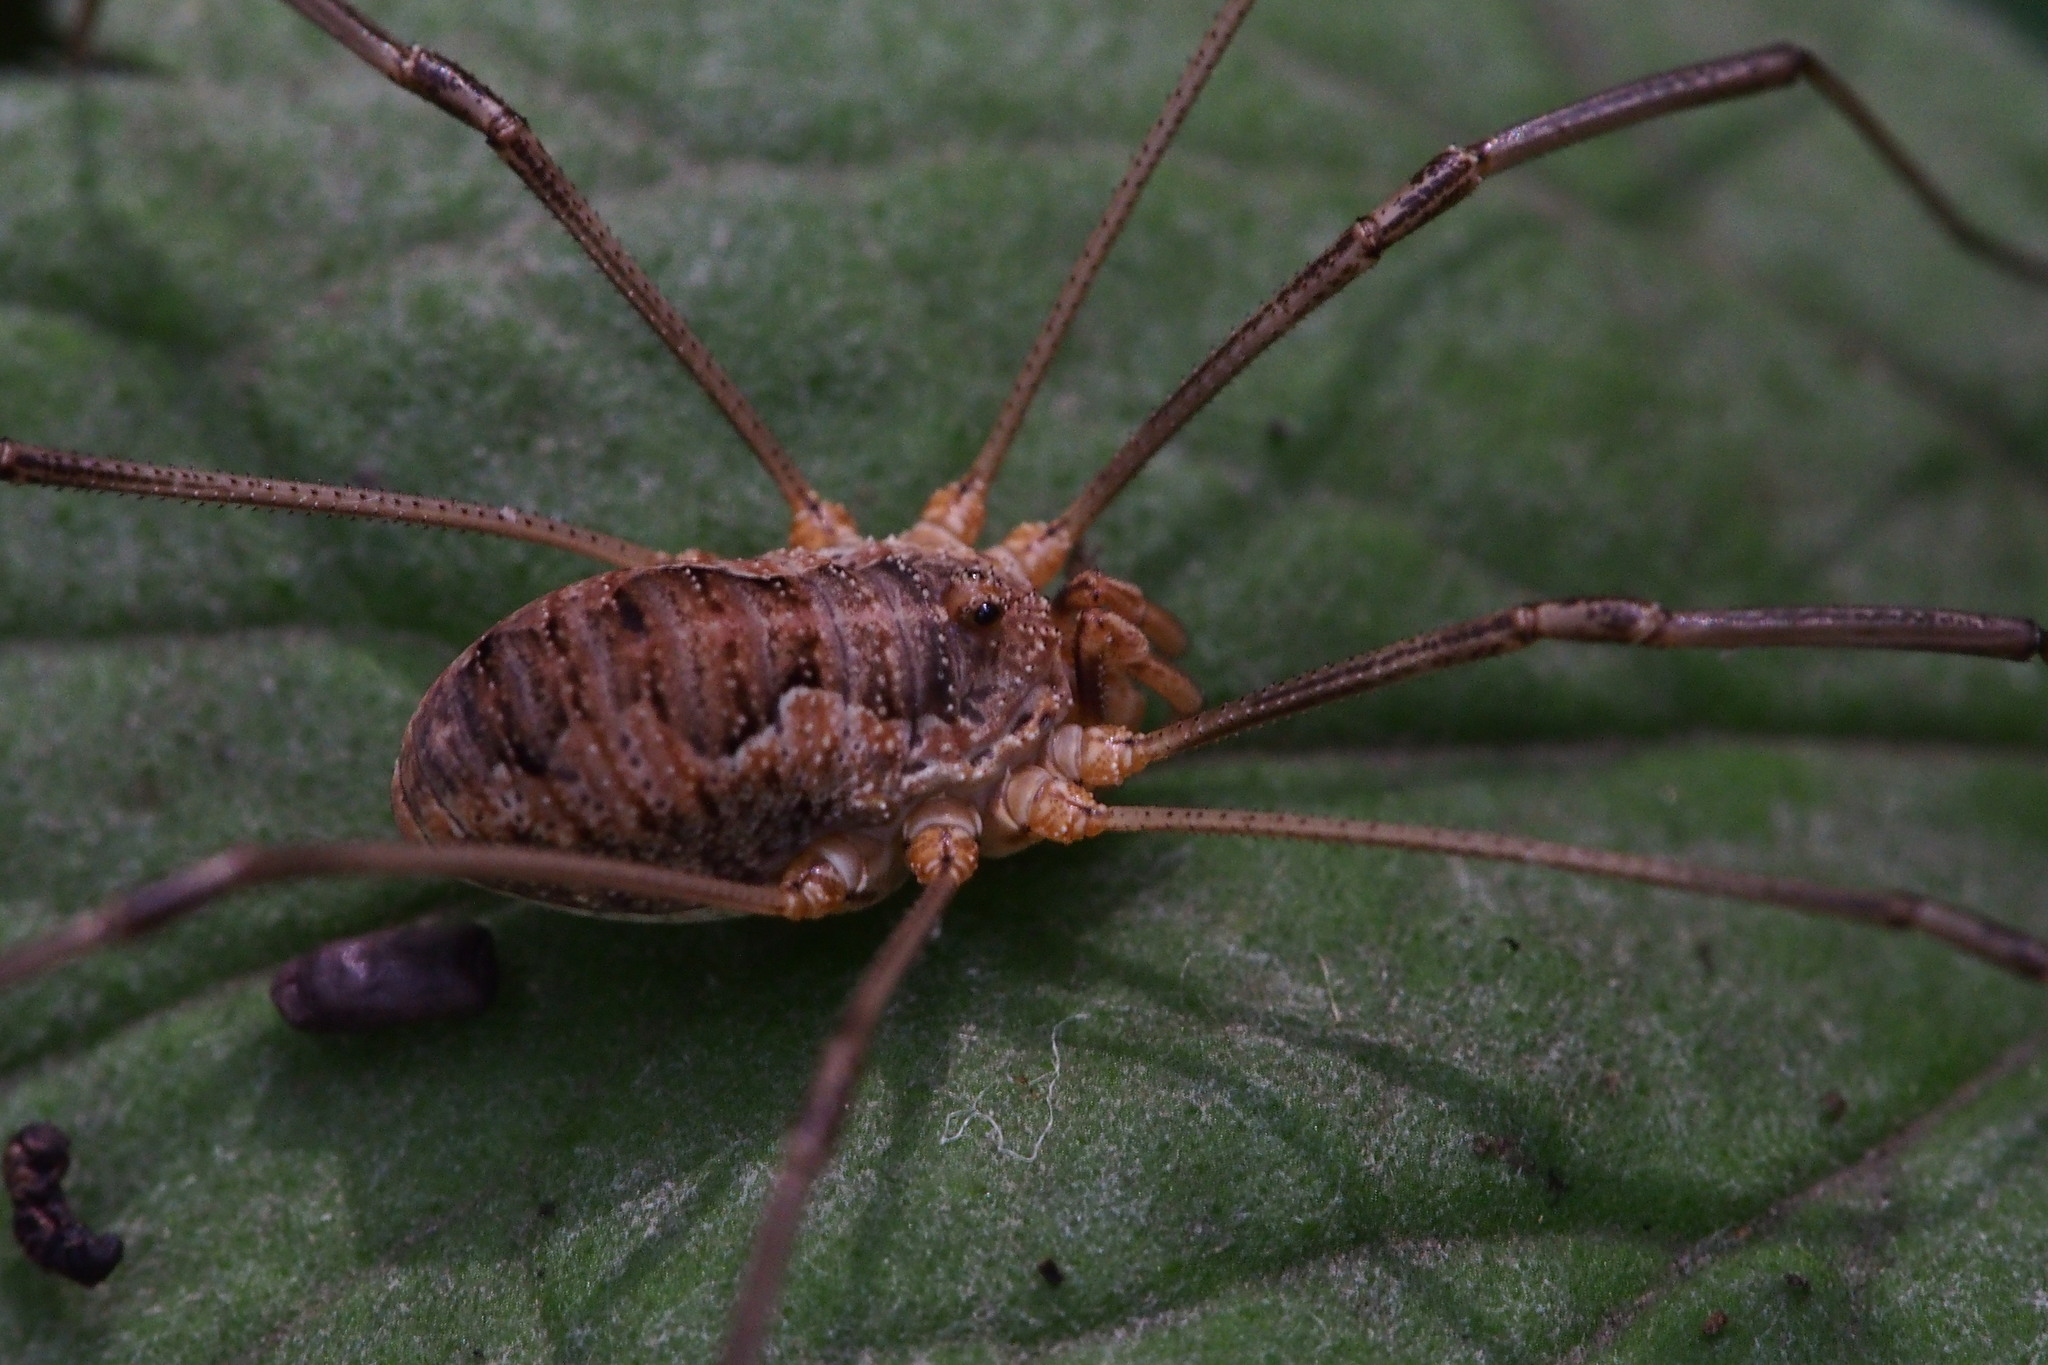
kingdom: Animalia
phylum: Arthropoda
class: Arachnida
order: Opiliones
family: Phalangiidae
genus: Phalangium
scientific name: Phalangium opilio
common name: Daddy longleg
